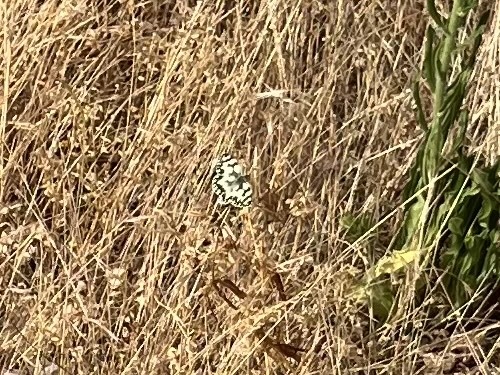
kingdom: Animalia
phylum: Arthropoda
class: Insecta
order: Lepidoptera
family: Nymphalidae
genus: Melanargia
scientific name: Melanargia galathea
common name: Marbled white
